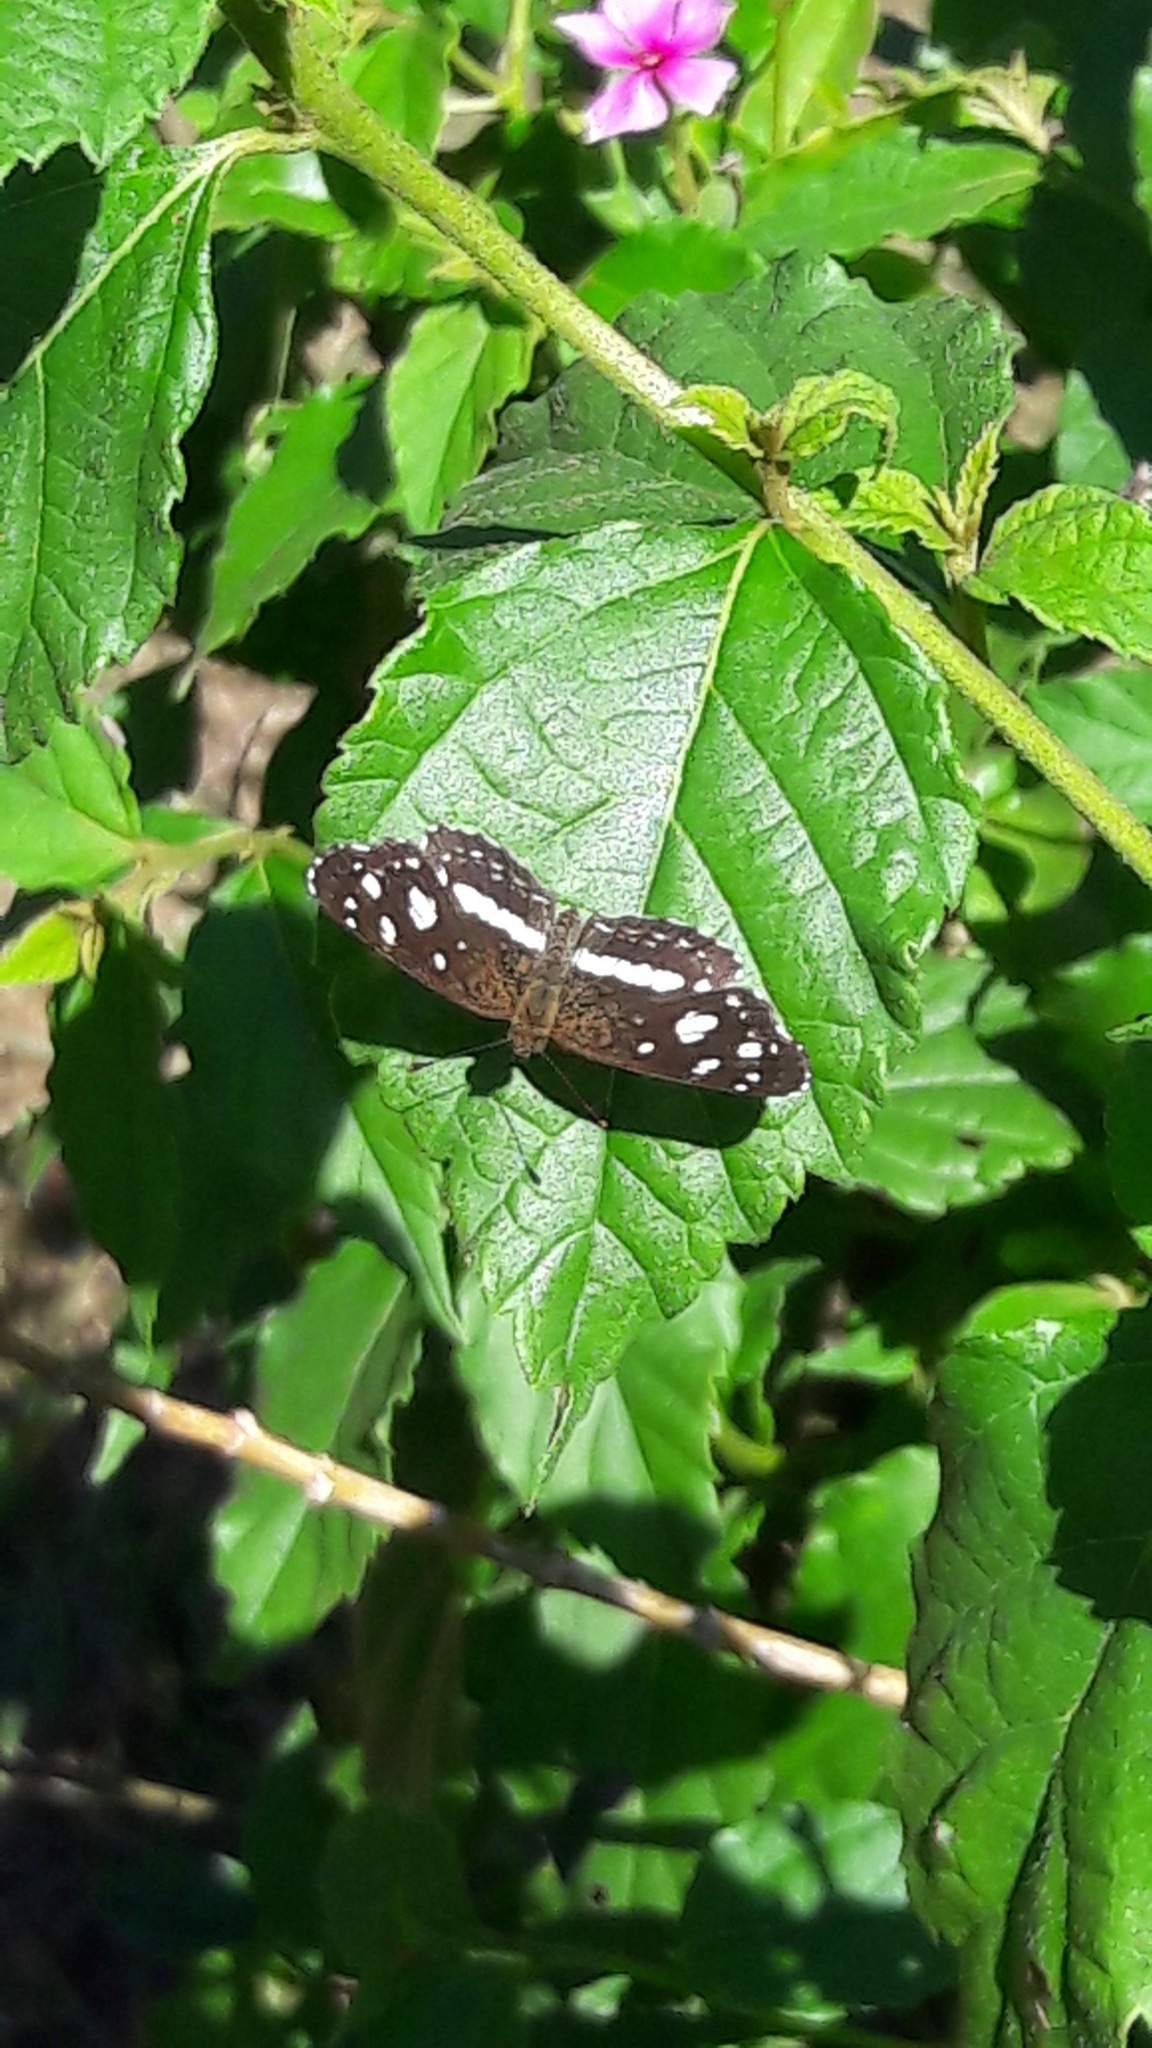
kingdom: Animalia
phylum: Arthropoda
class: Insecta
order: Lepidoptera
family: Nymphalidae
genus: Ortilia
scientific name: Ortilia ithra
